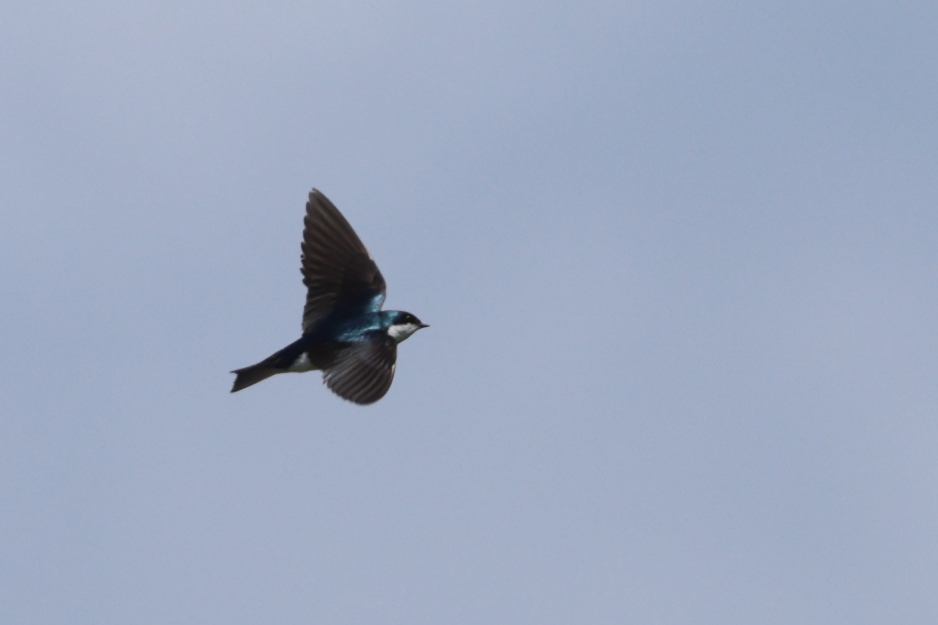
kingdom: Animalia
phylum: Chordata
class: Aves
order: Passeriformes
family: Hirundinidae
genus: Tachycineta
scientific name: Tachycineta bicolor
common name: Tree swallow
